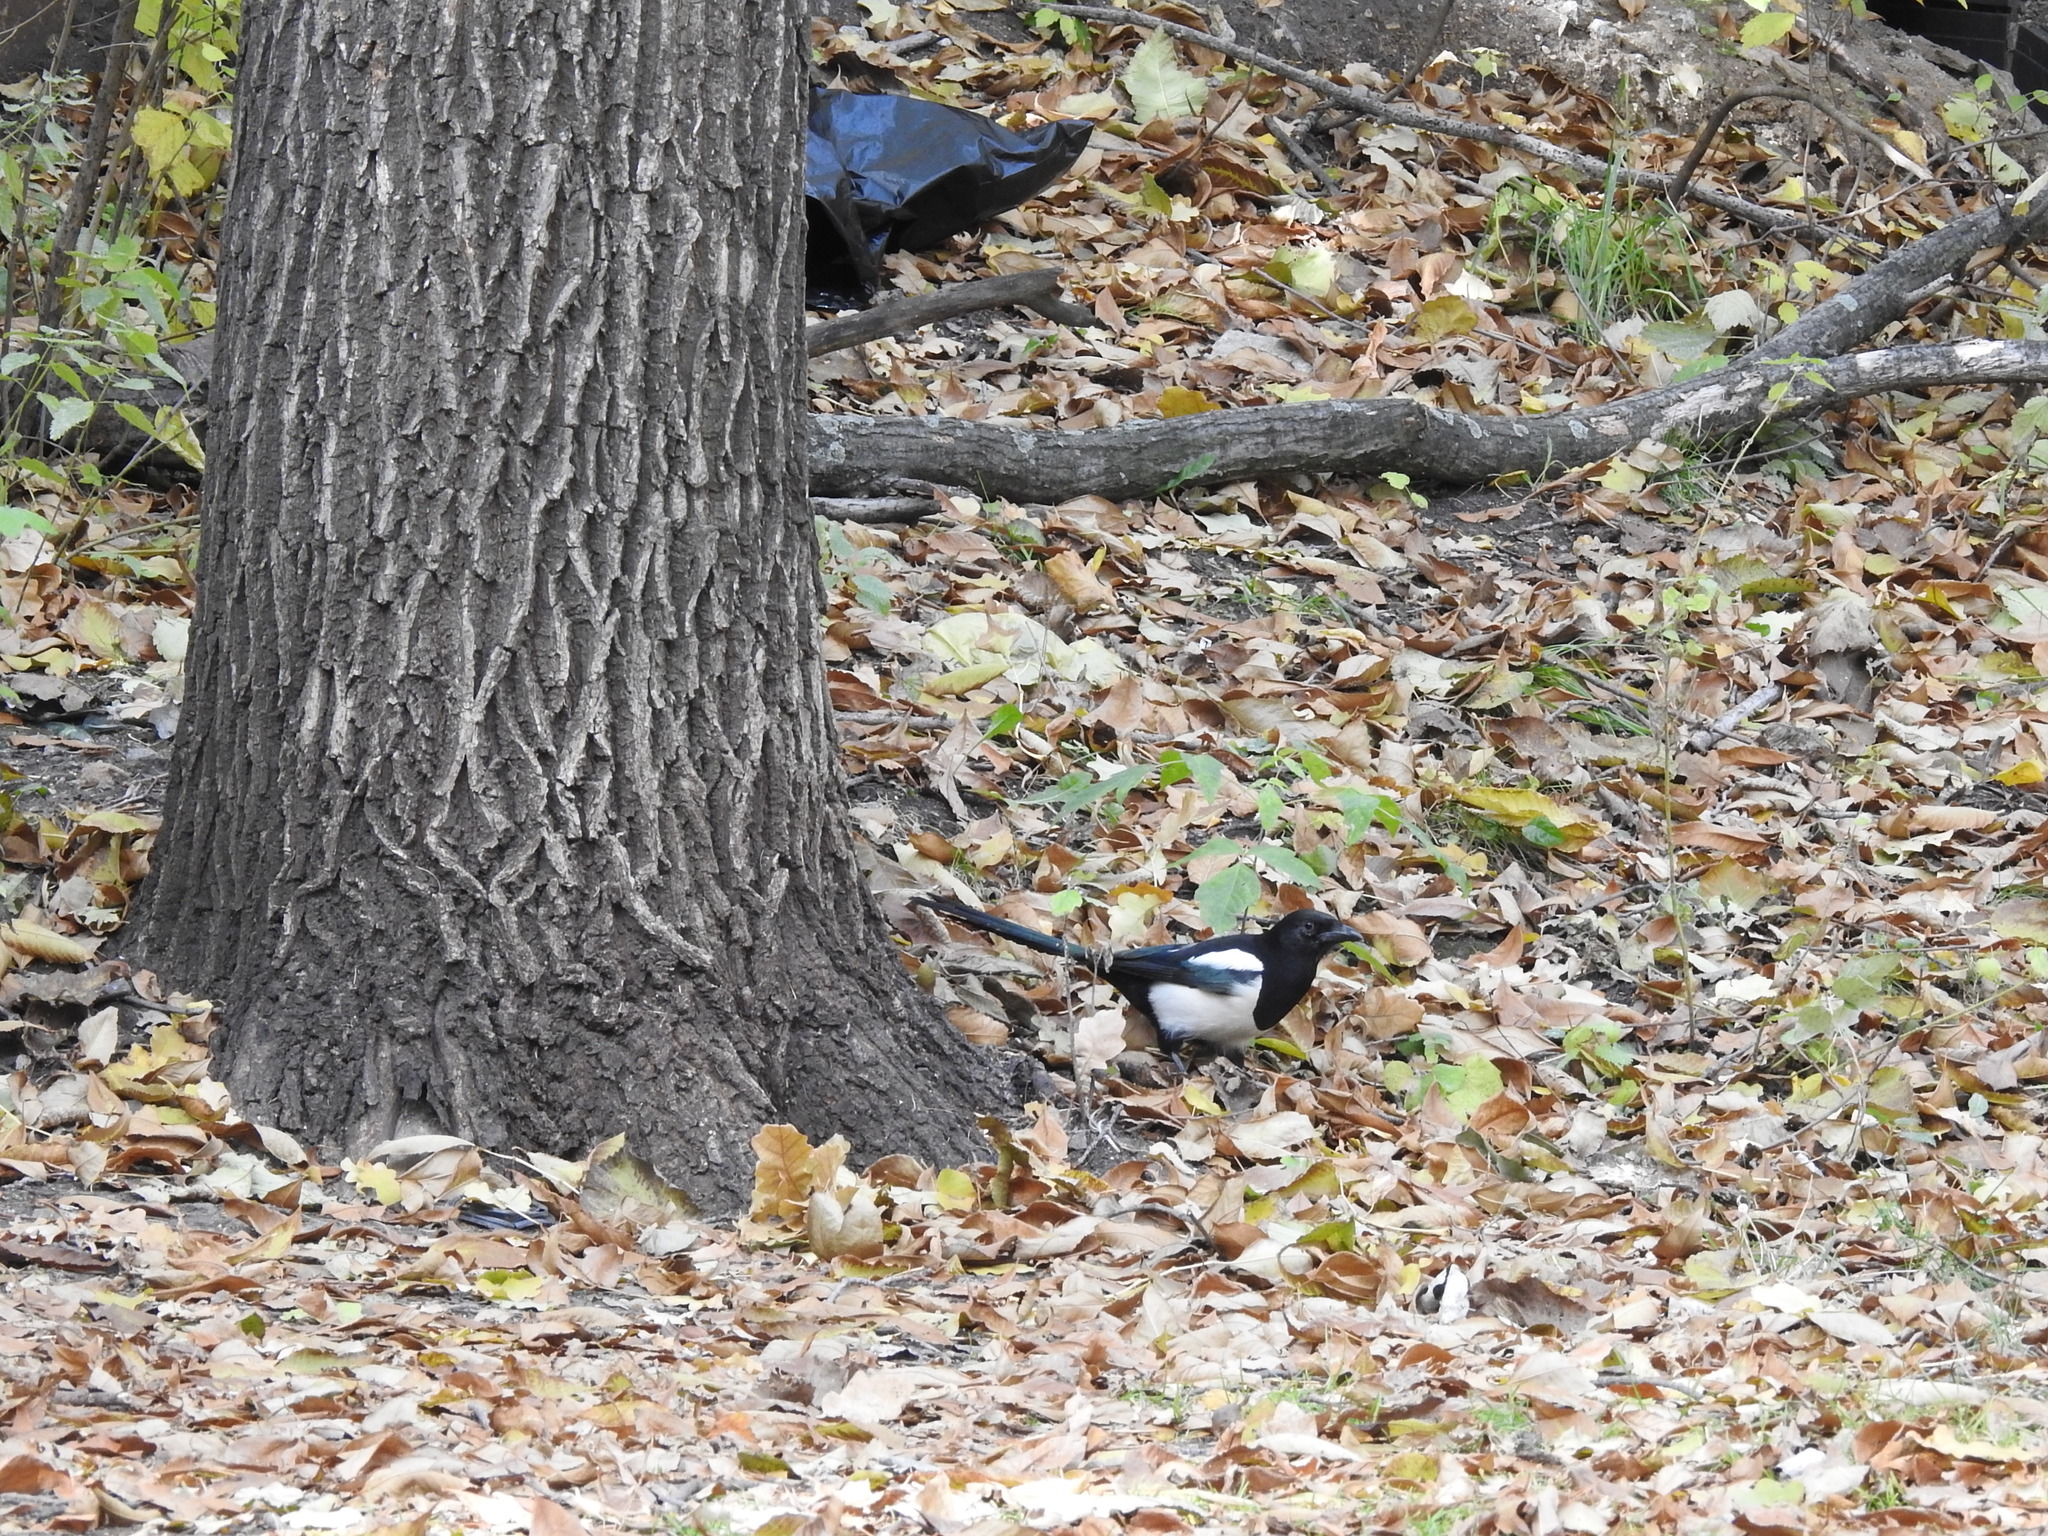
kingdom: Animalia
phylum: Chordata
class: Aves
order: Passeriformes
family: Corvidae
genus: Pica
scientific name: Pica pica
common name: Eurasian magpie
